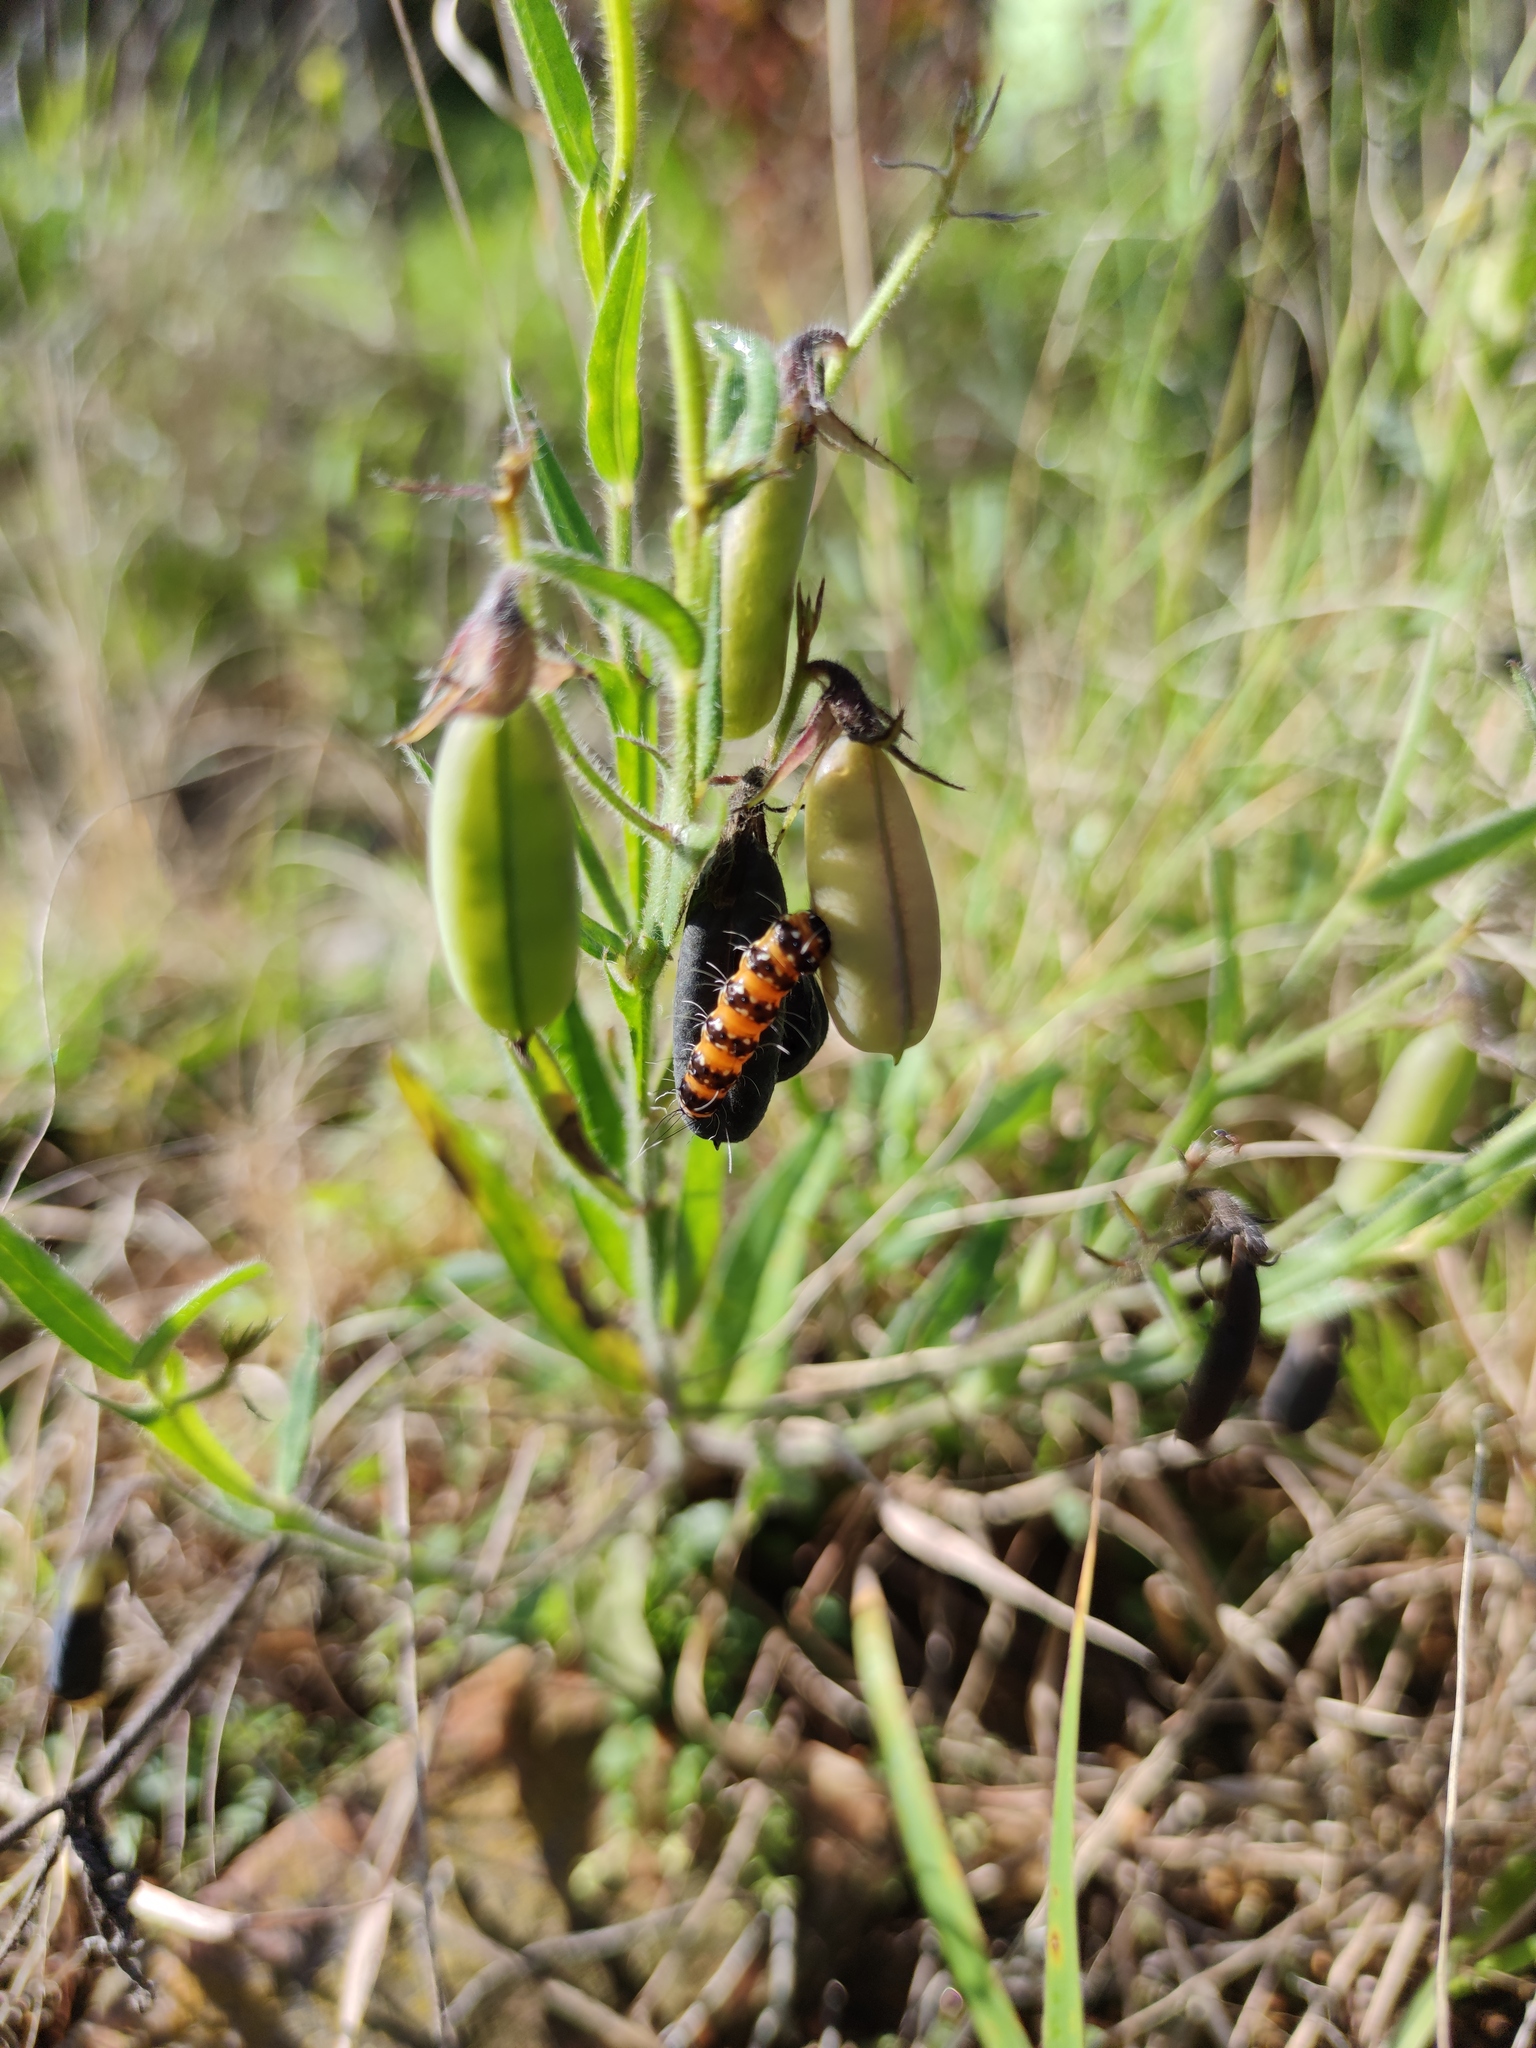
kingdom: Animalia
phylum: Arthropoda
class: Insecta
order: Lepidoptera
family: Erebidae
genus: Utetheisa
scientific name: Utetheisa ornatrix
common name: Beautiful utetheisa
